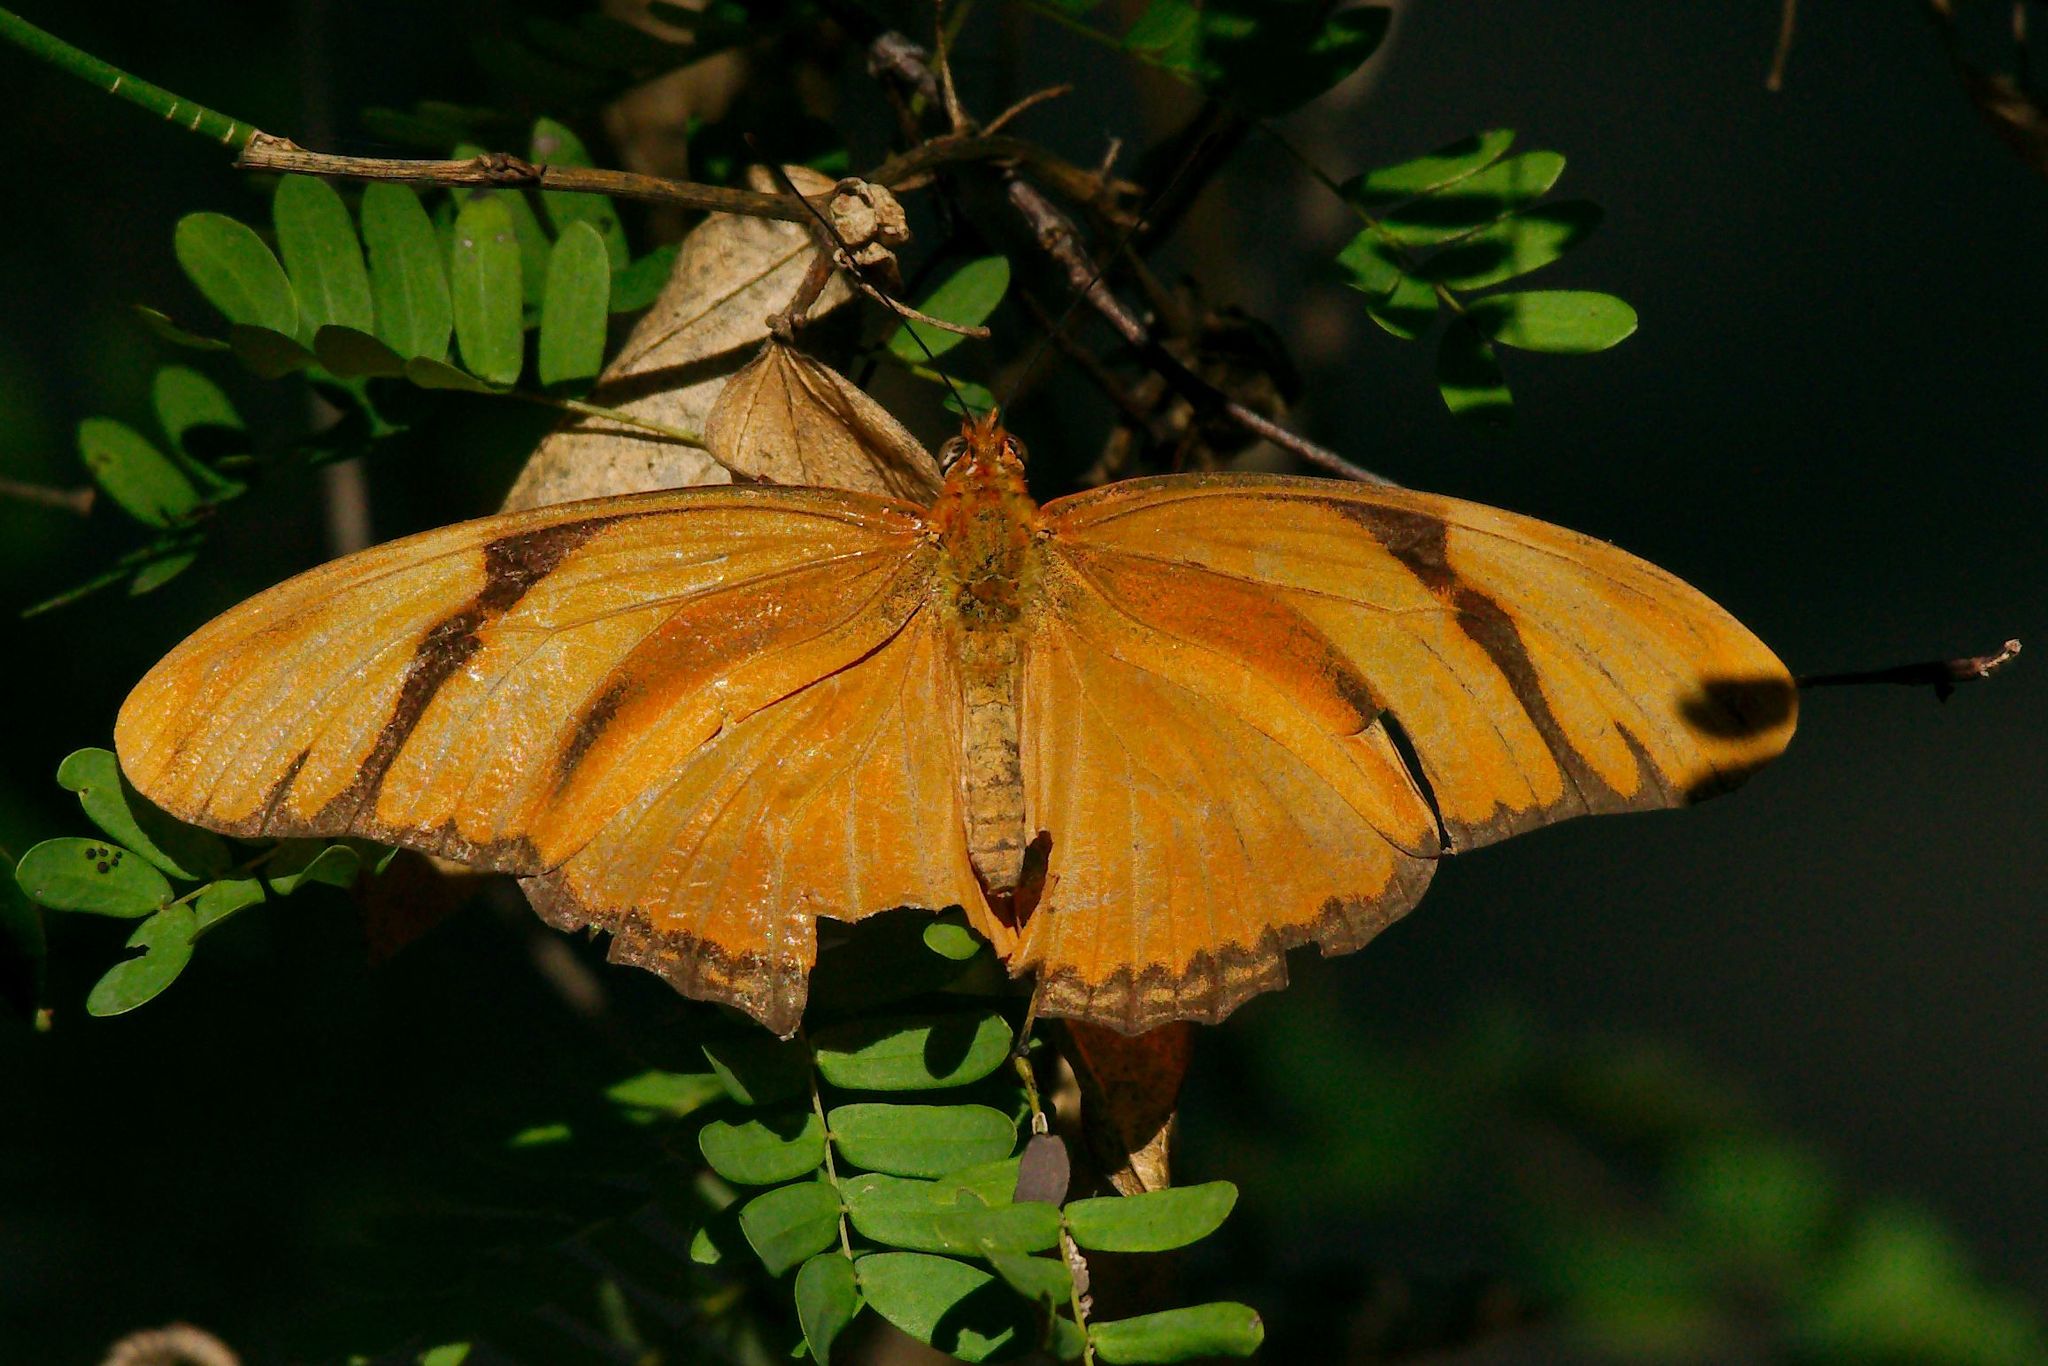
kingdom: Animalia
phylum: Arthropoda
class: Insecta
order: Lepidoptera
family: Nymphalidae
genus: Dryas
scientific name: Dryas iulia
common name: Flambeau
